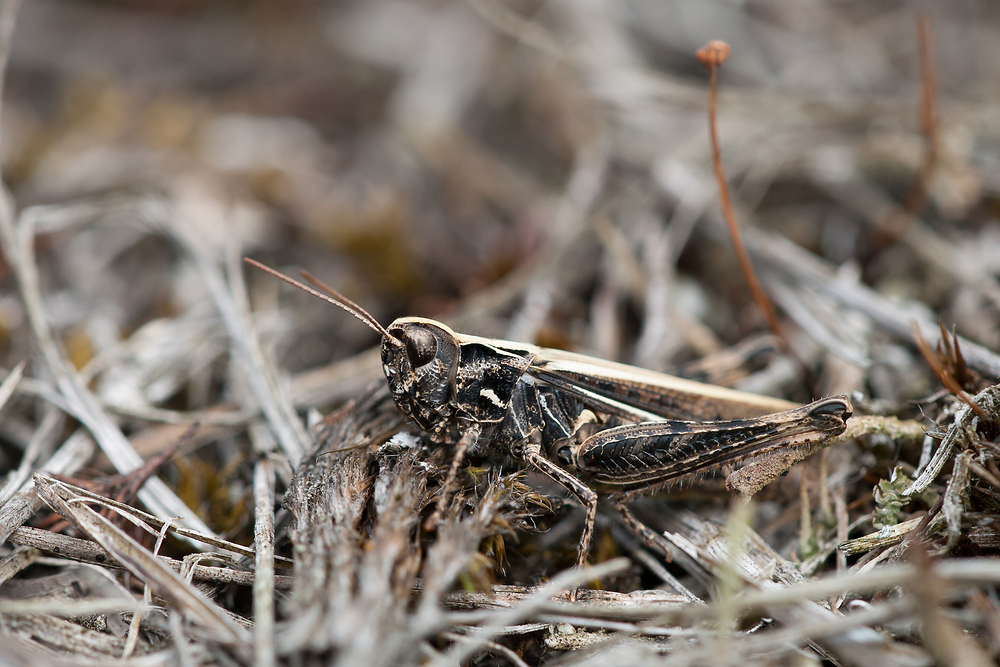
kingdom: Animalia
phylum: Arthropoda
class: Insecta
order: Orthoptera
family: Acrididae
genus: Myrmeleotettix
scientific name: Myrmeleotettix maculatus
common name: Mottled grasshopper
